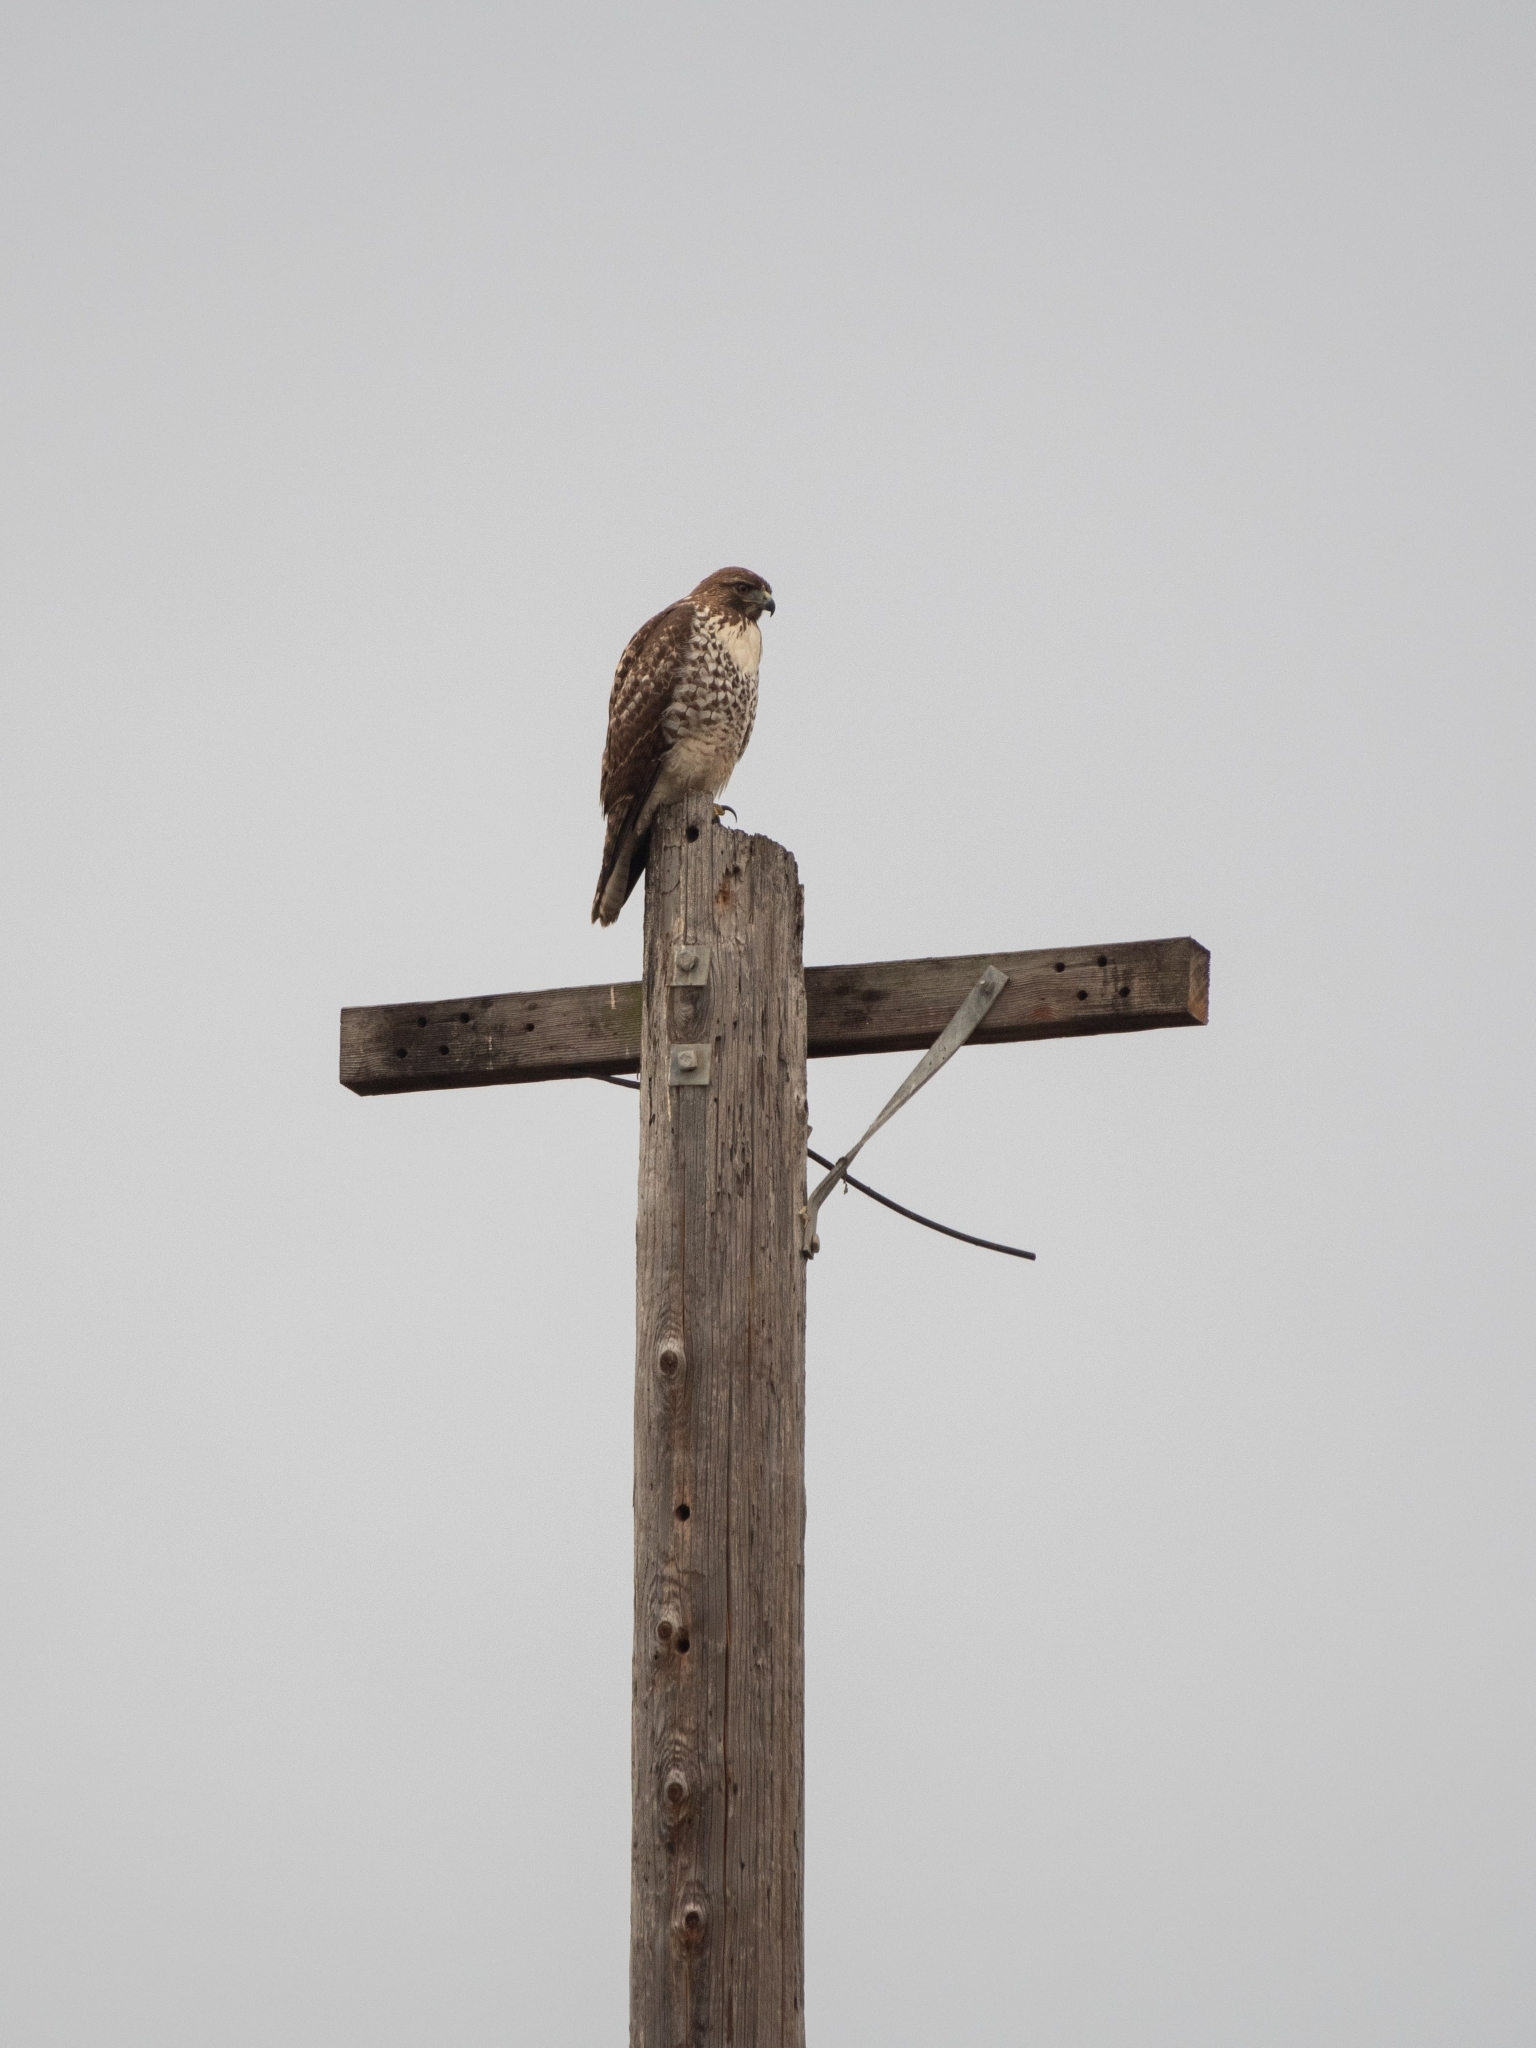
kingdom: Animalia
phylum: Chordata
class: Aves
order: Accipitriformes
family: Accipitridae
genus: Buteo
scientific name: Buteo jamaicensis
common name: Red-tailed hawk
